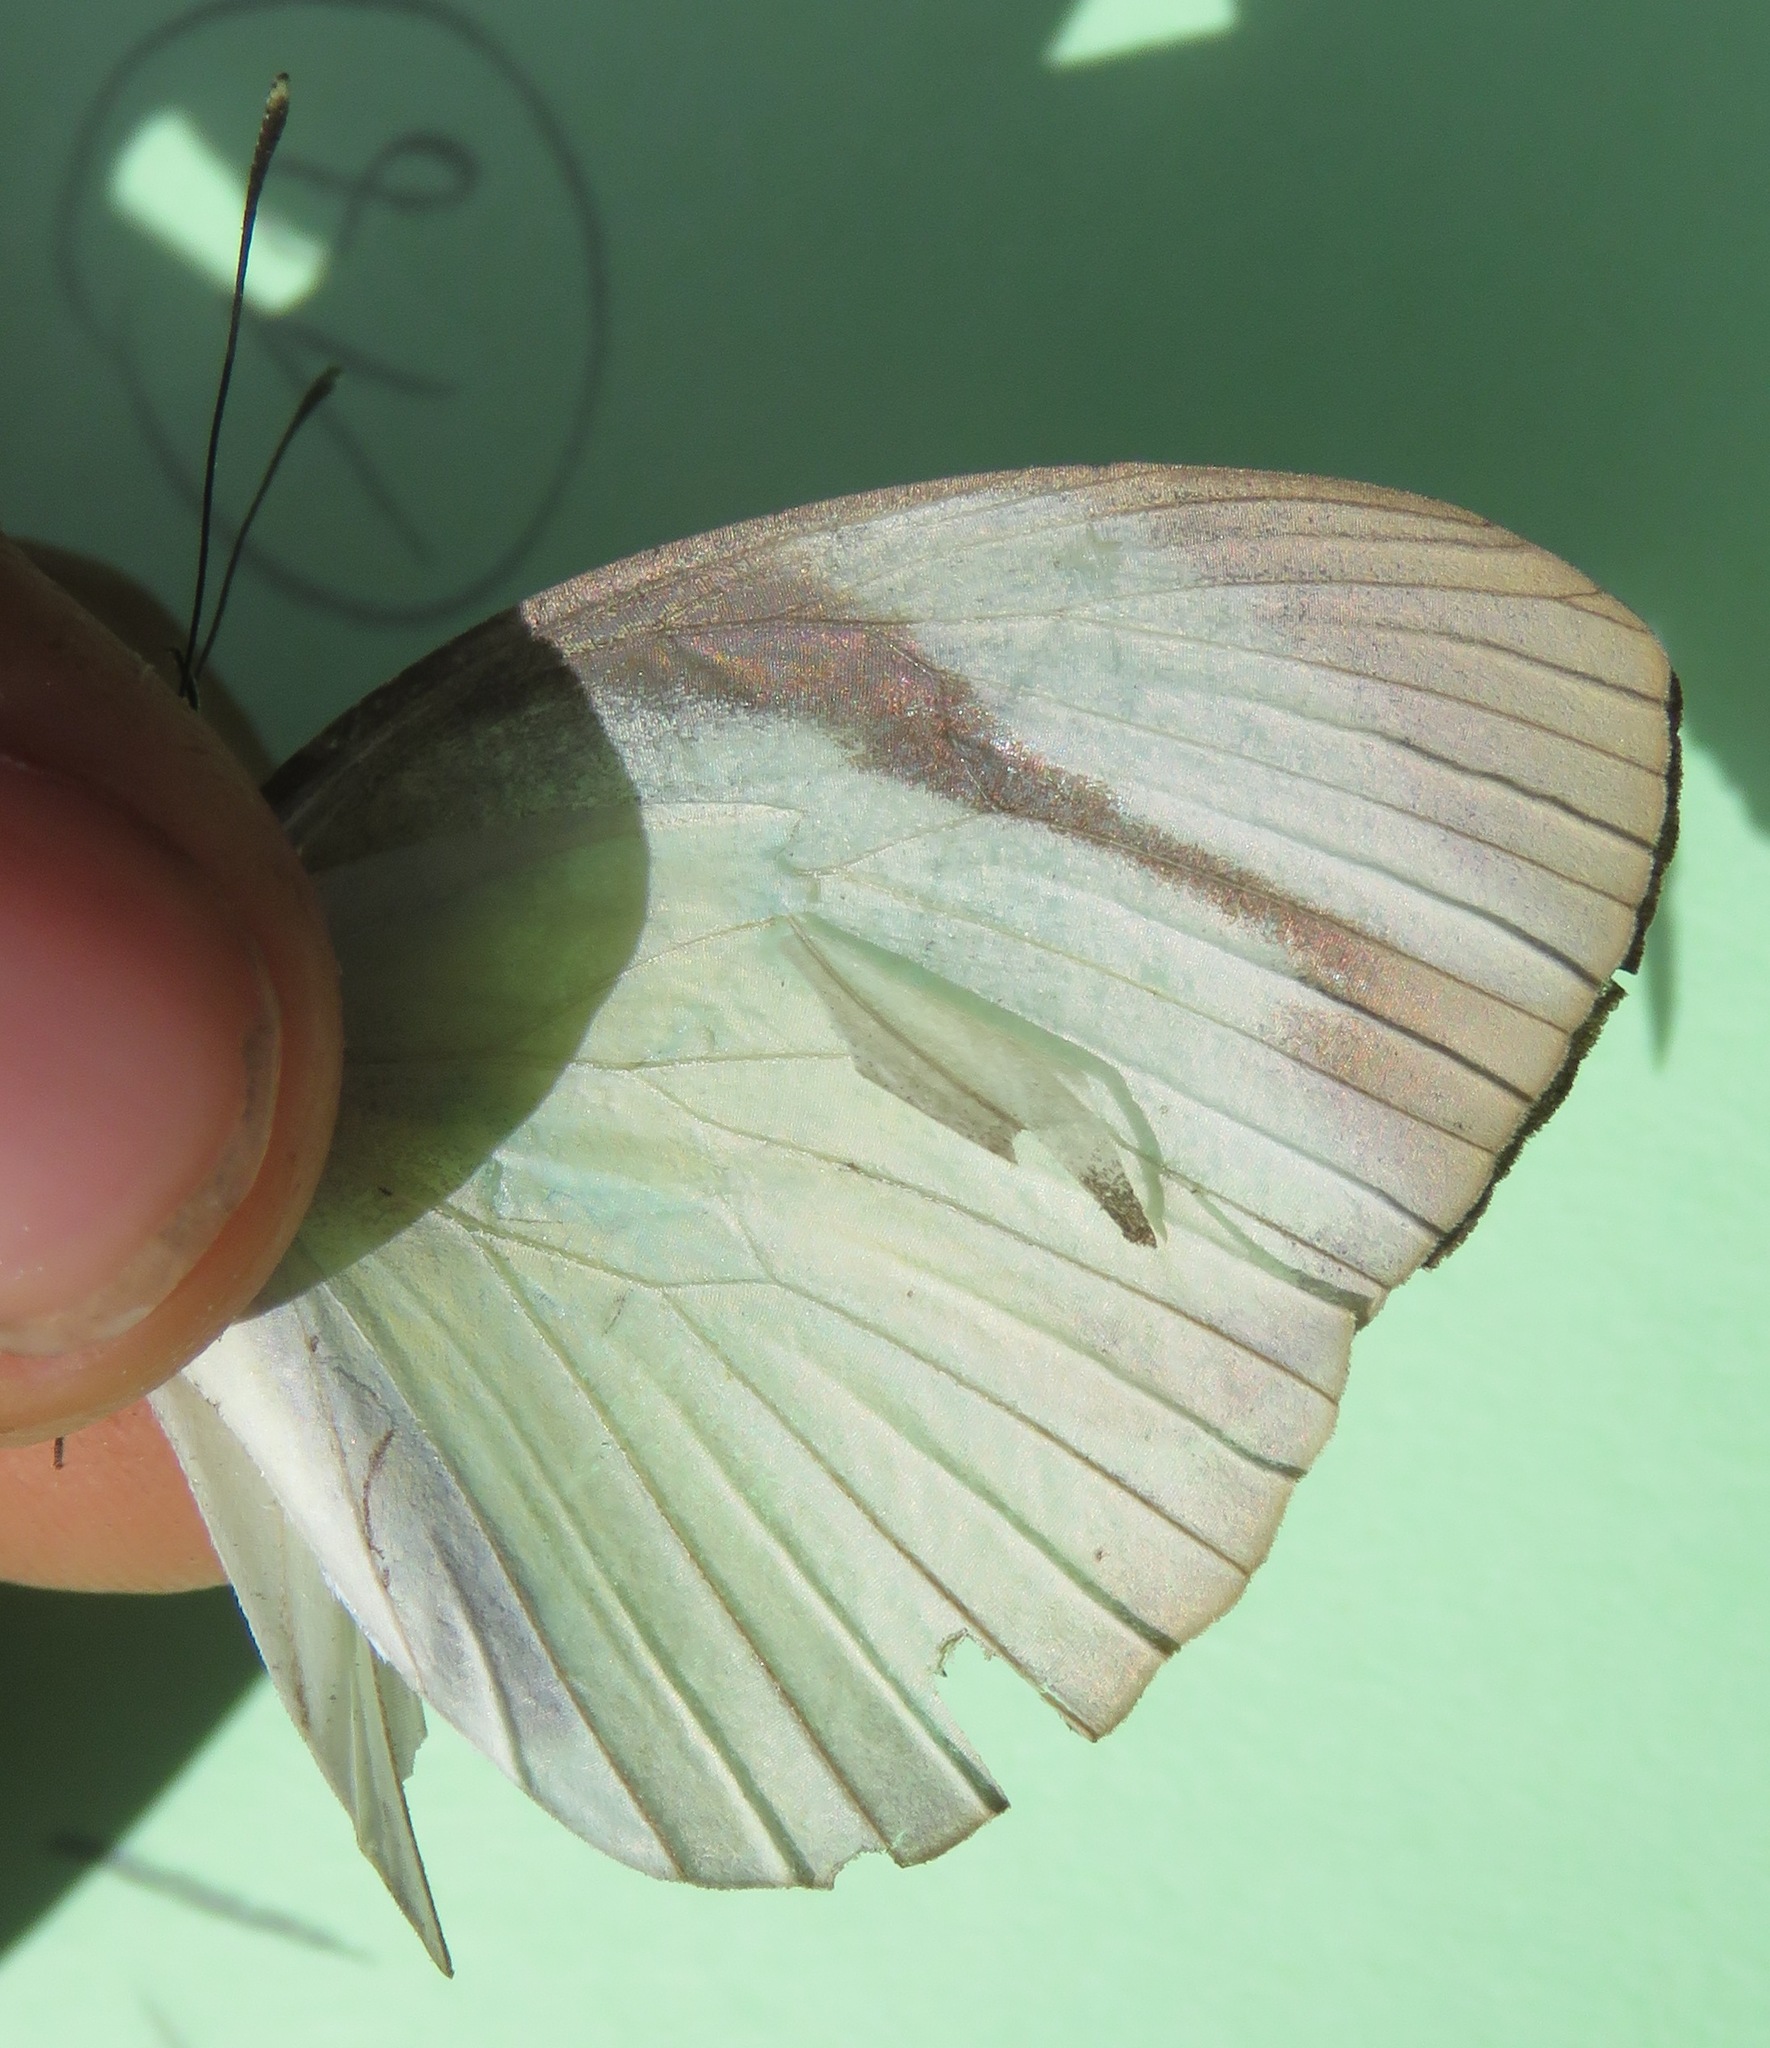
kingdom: Animalia
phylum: Arthropoda
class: Insecta
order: Lepidoptera
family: Pieridae
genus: Itaballia
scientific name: Itaballia demophile
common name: Cross-barred white
